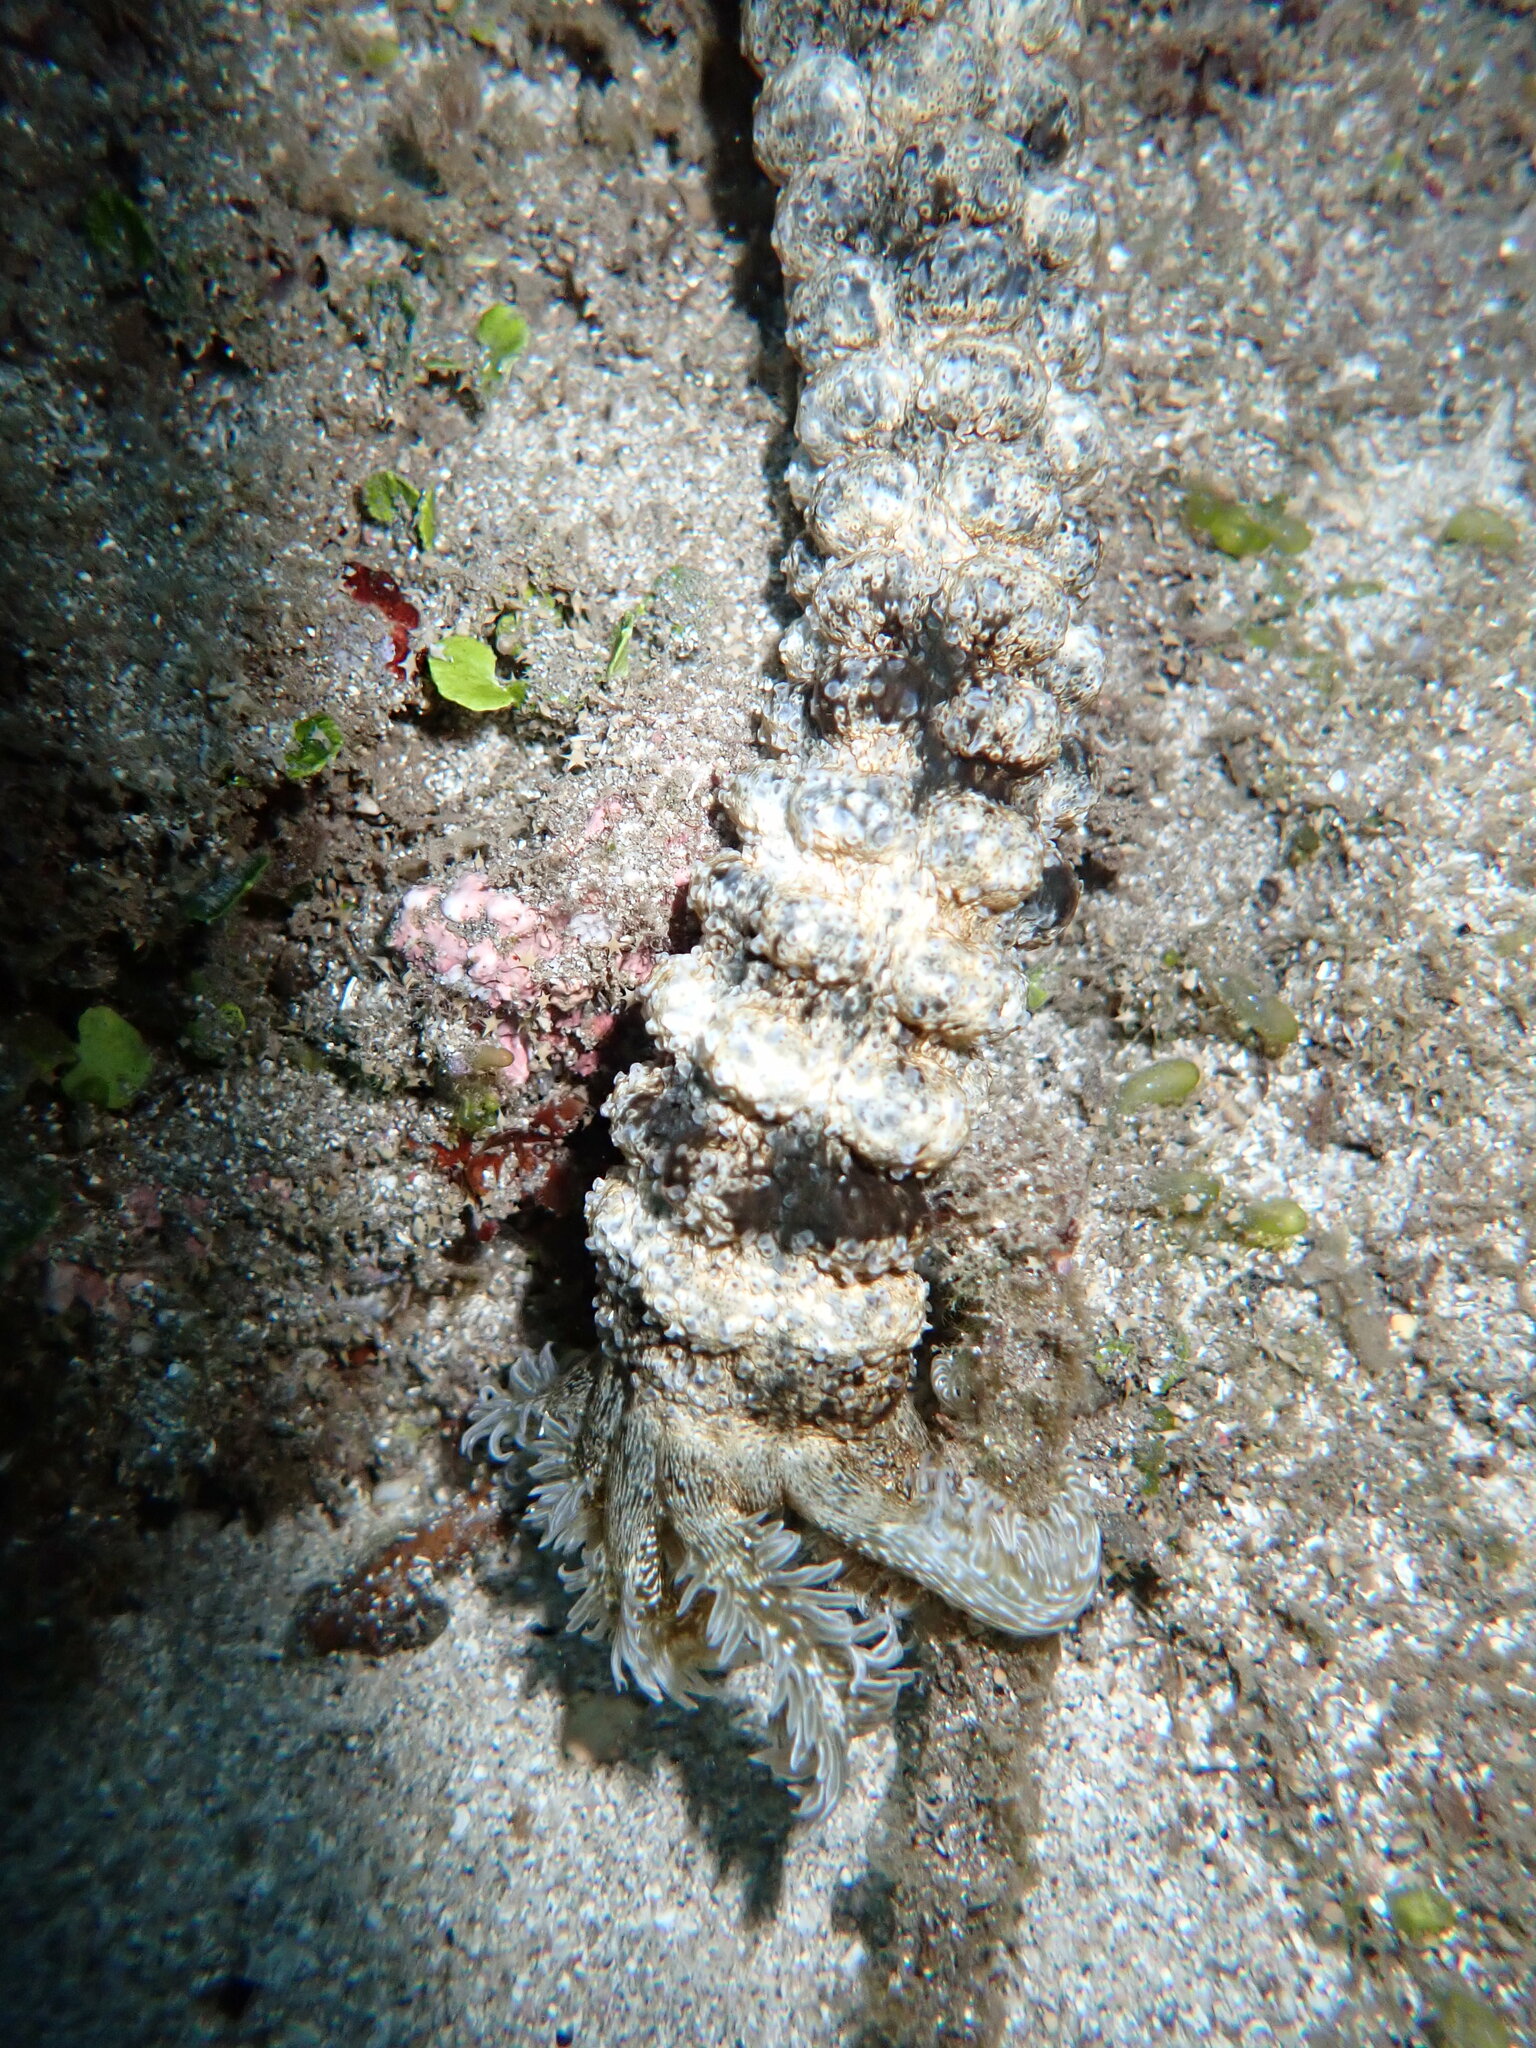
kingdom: Animalia
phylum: Echinodermata
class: Holothuroidea
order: Apodida
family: Synaptidae
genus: Synapta
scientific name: Synapta maculata
